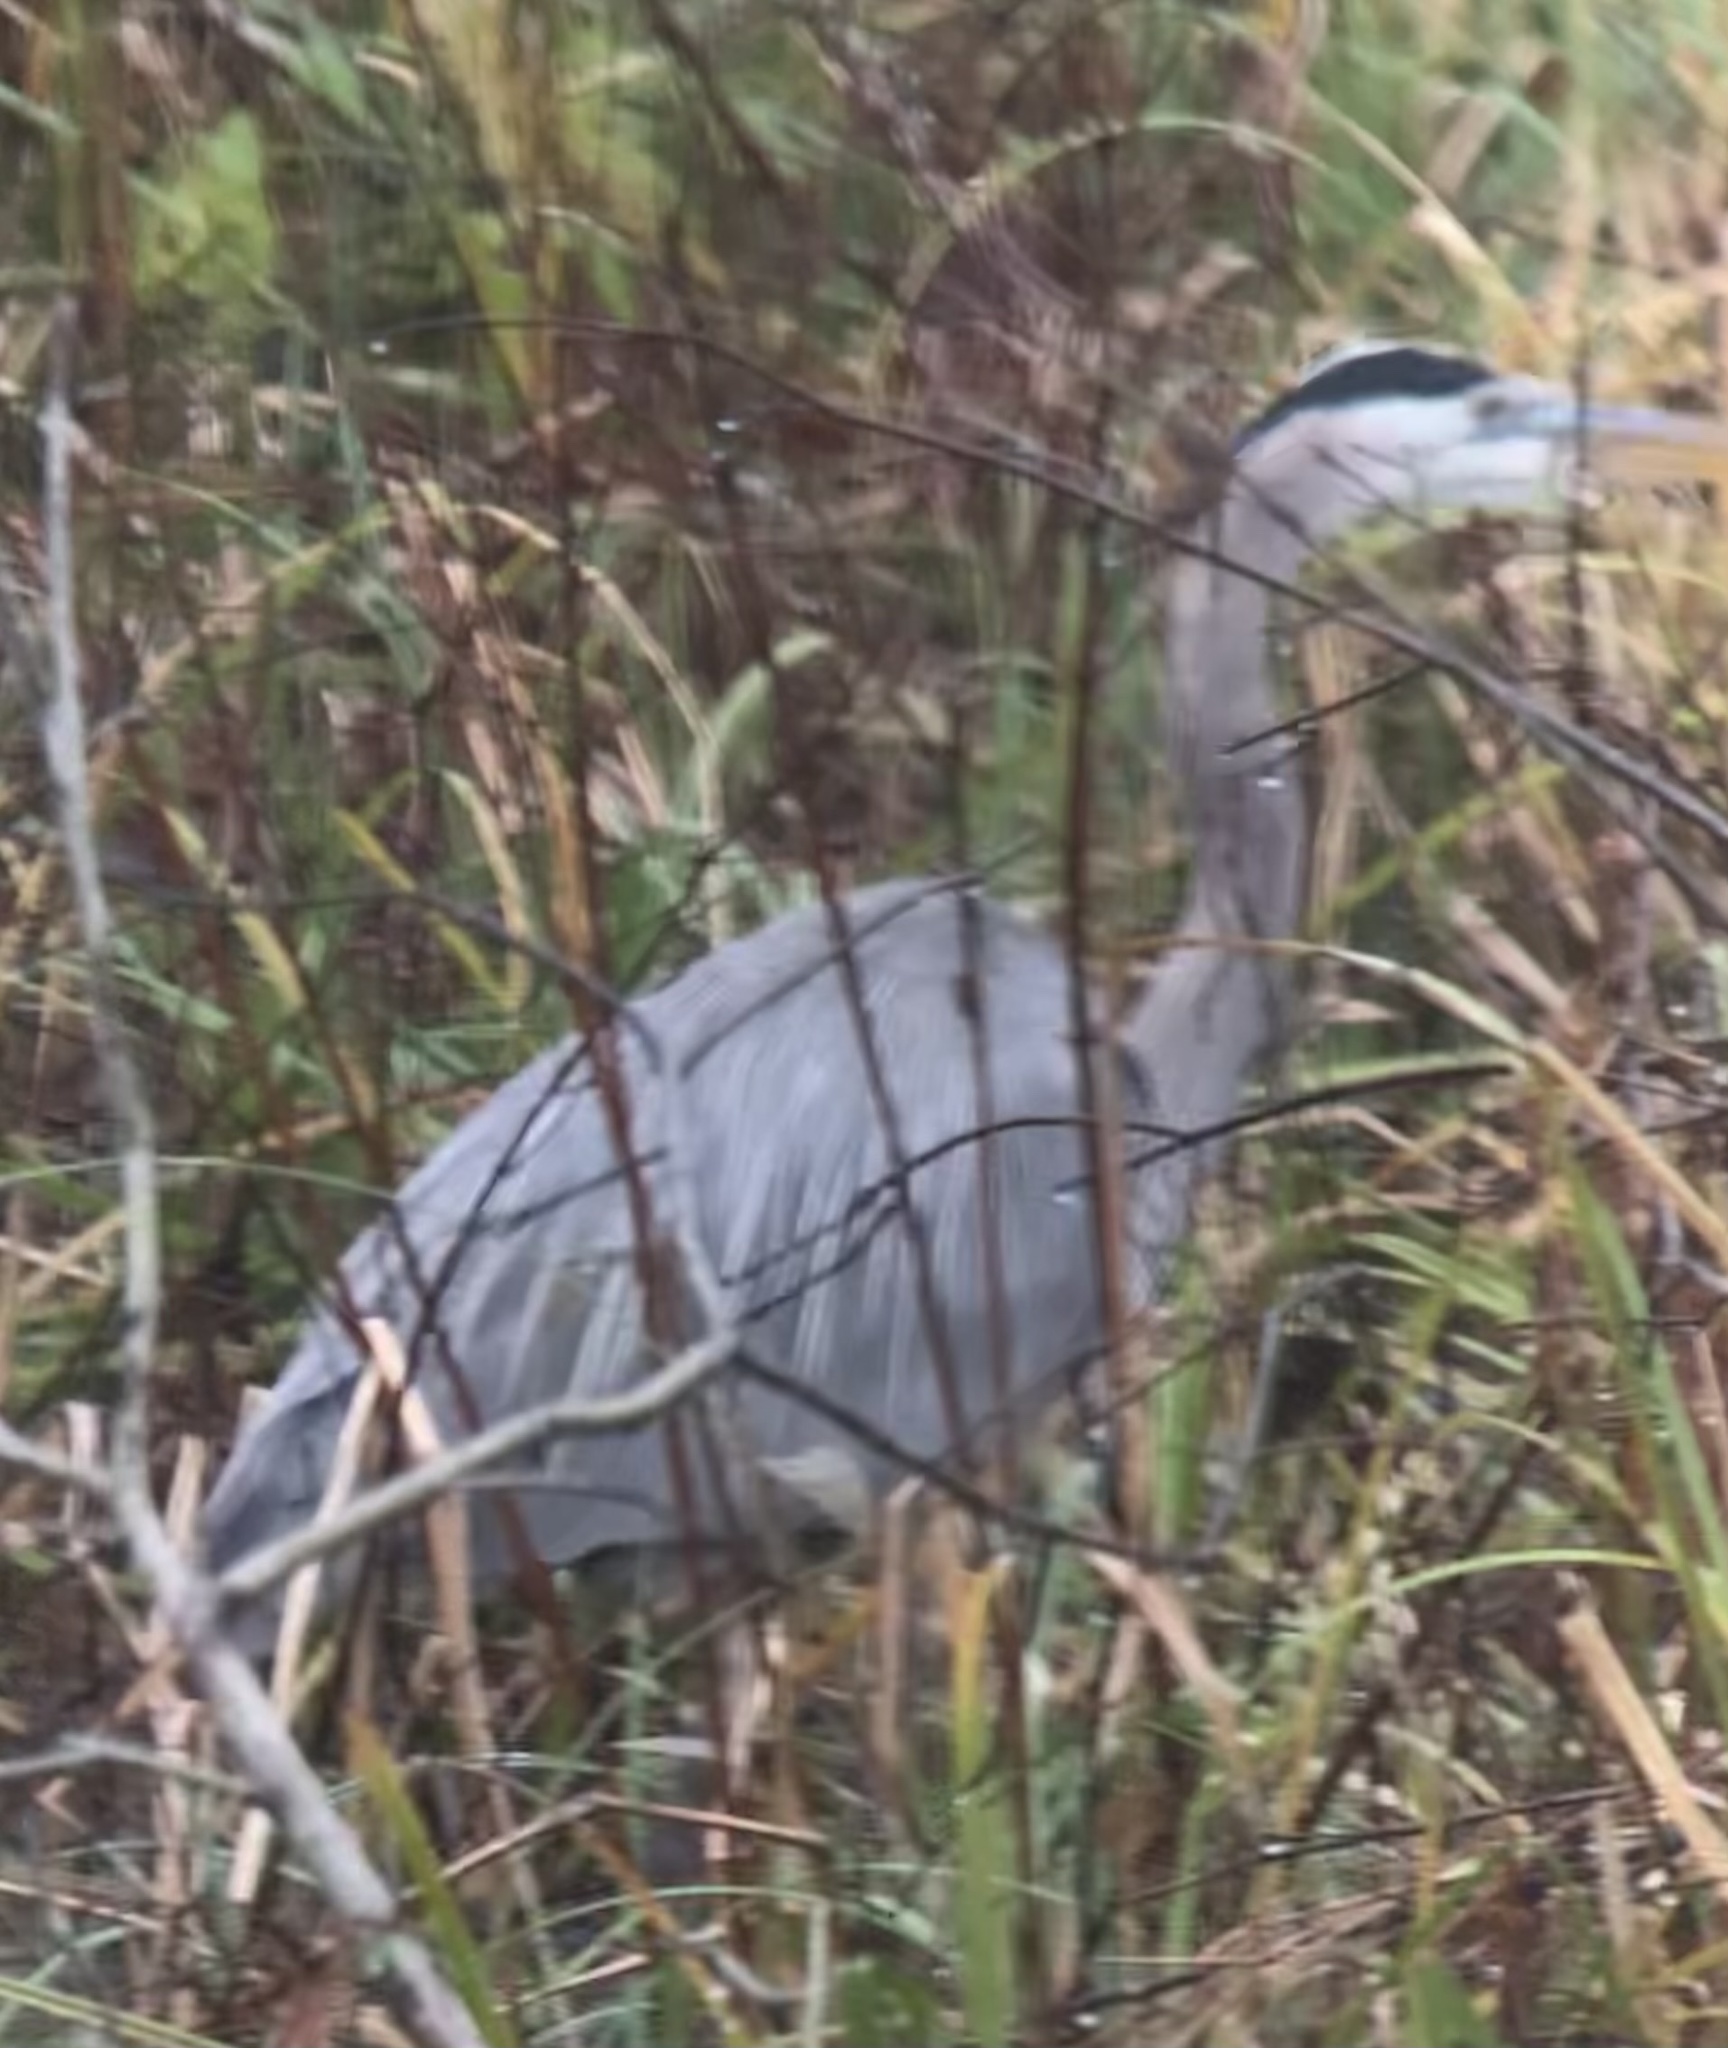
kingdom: Animalia
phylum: Chordata
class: Aves
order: Pelecaniformes
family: Ardeidae
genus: Ardea
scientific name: Ardea herodias
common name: Great blue heron
